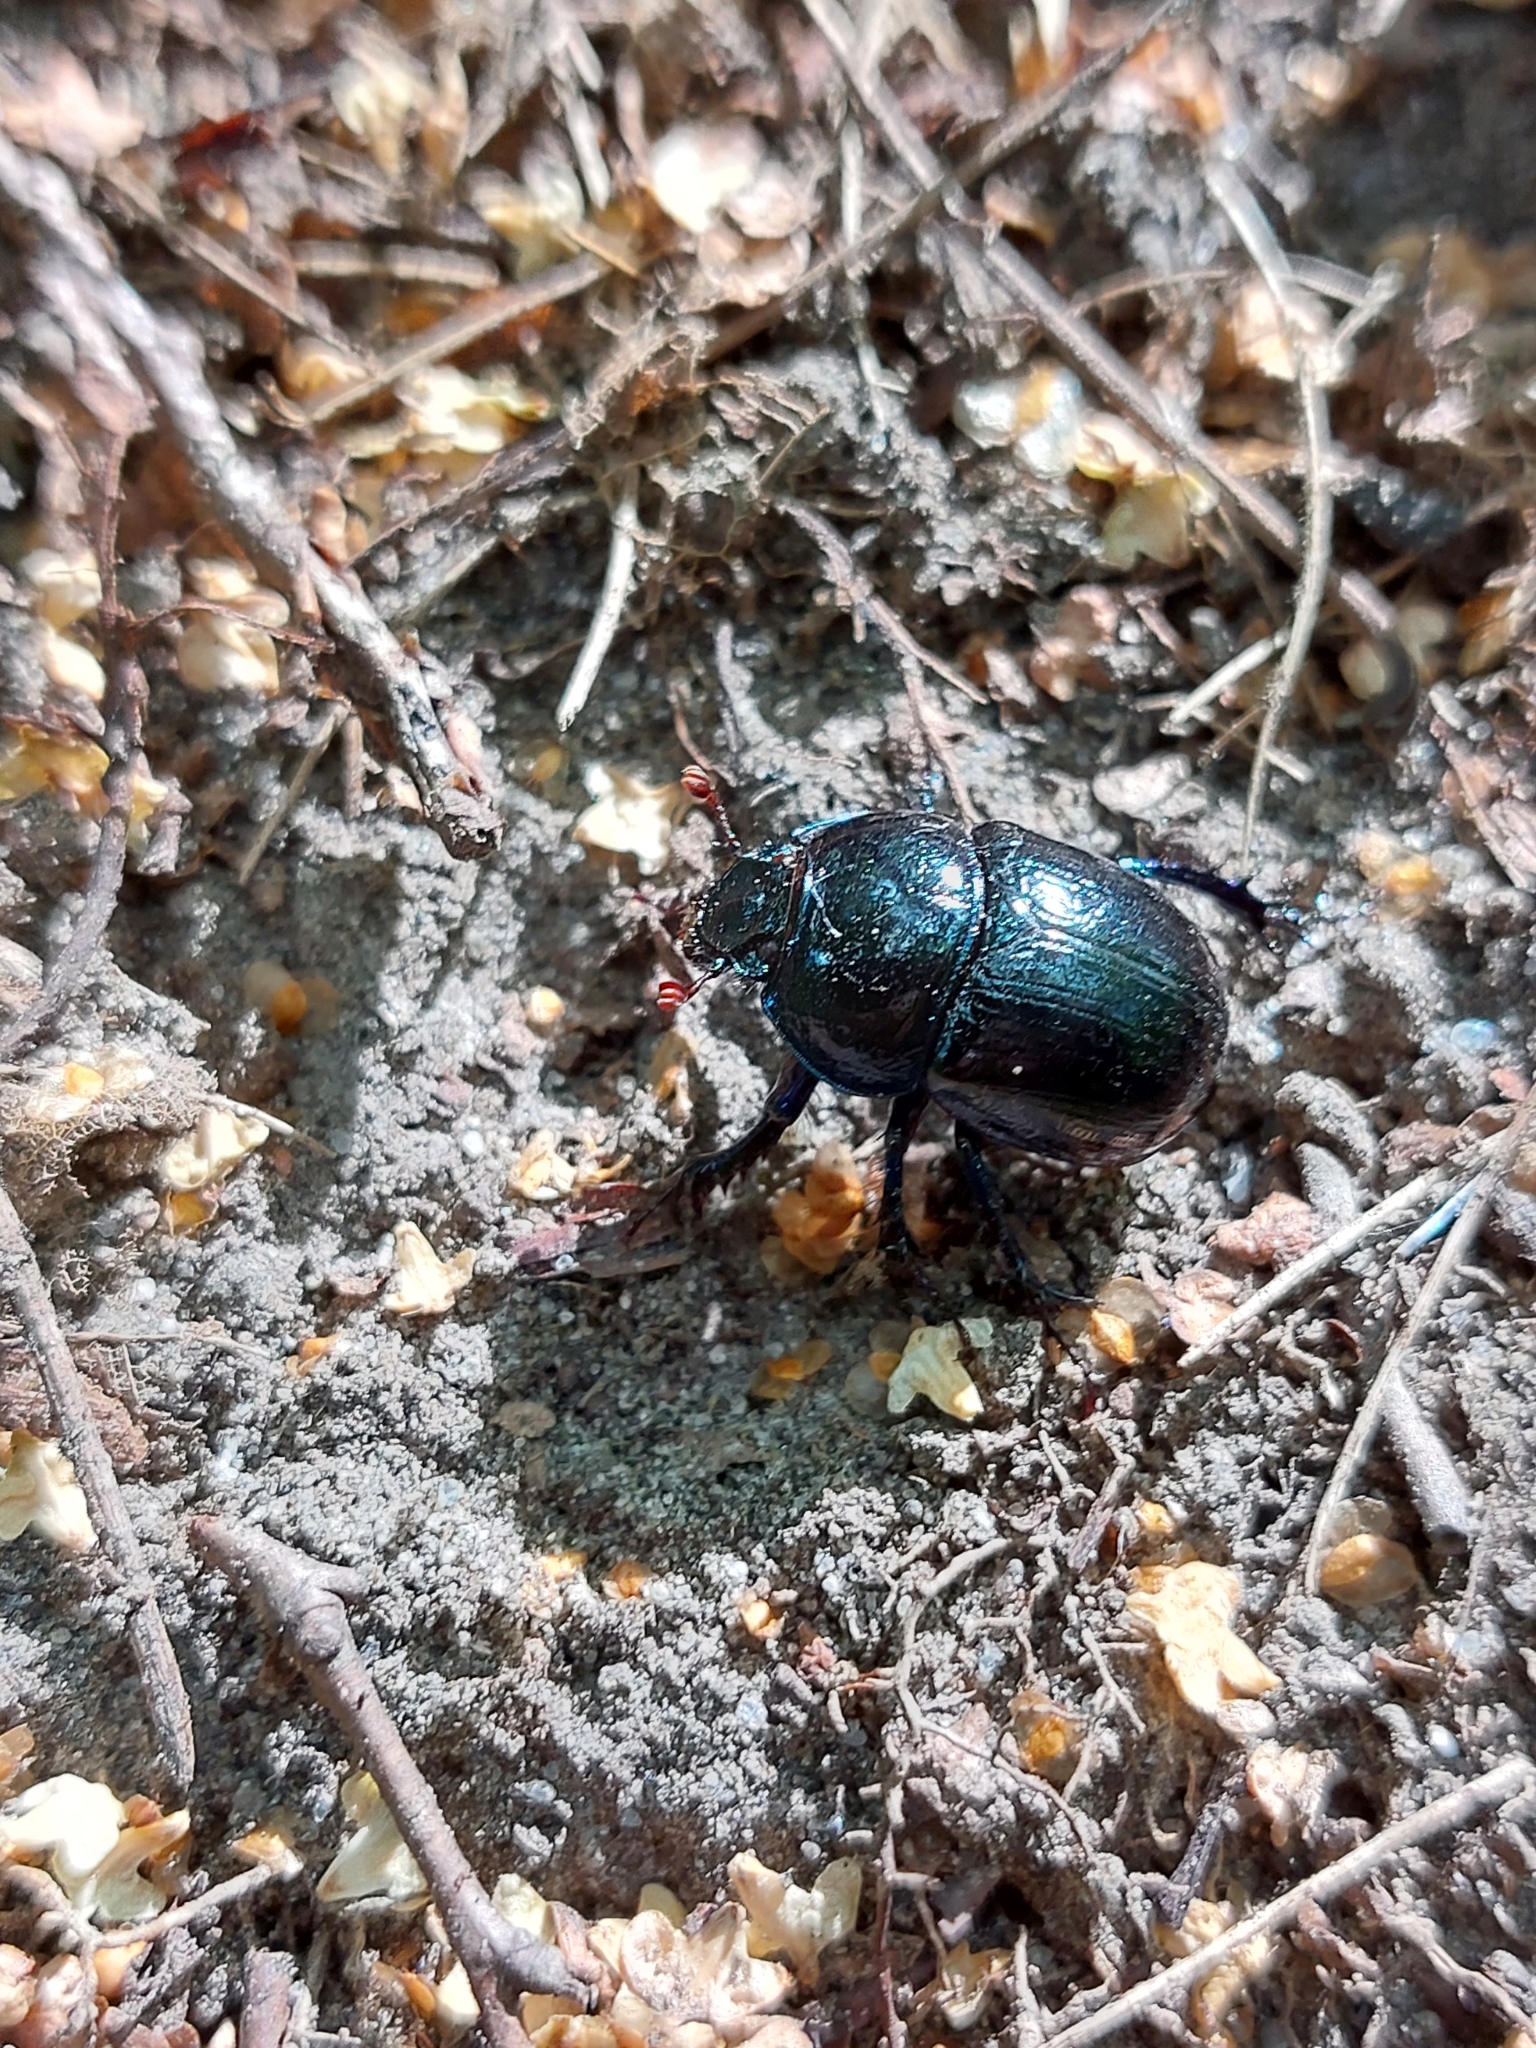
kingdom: Animalia
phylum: Arthropoda
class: Insecta
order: Coleoptera
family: Geotrupidae
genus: Anoplotrupes
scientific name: Anoplotrupes stercorosus
